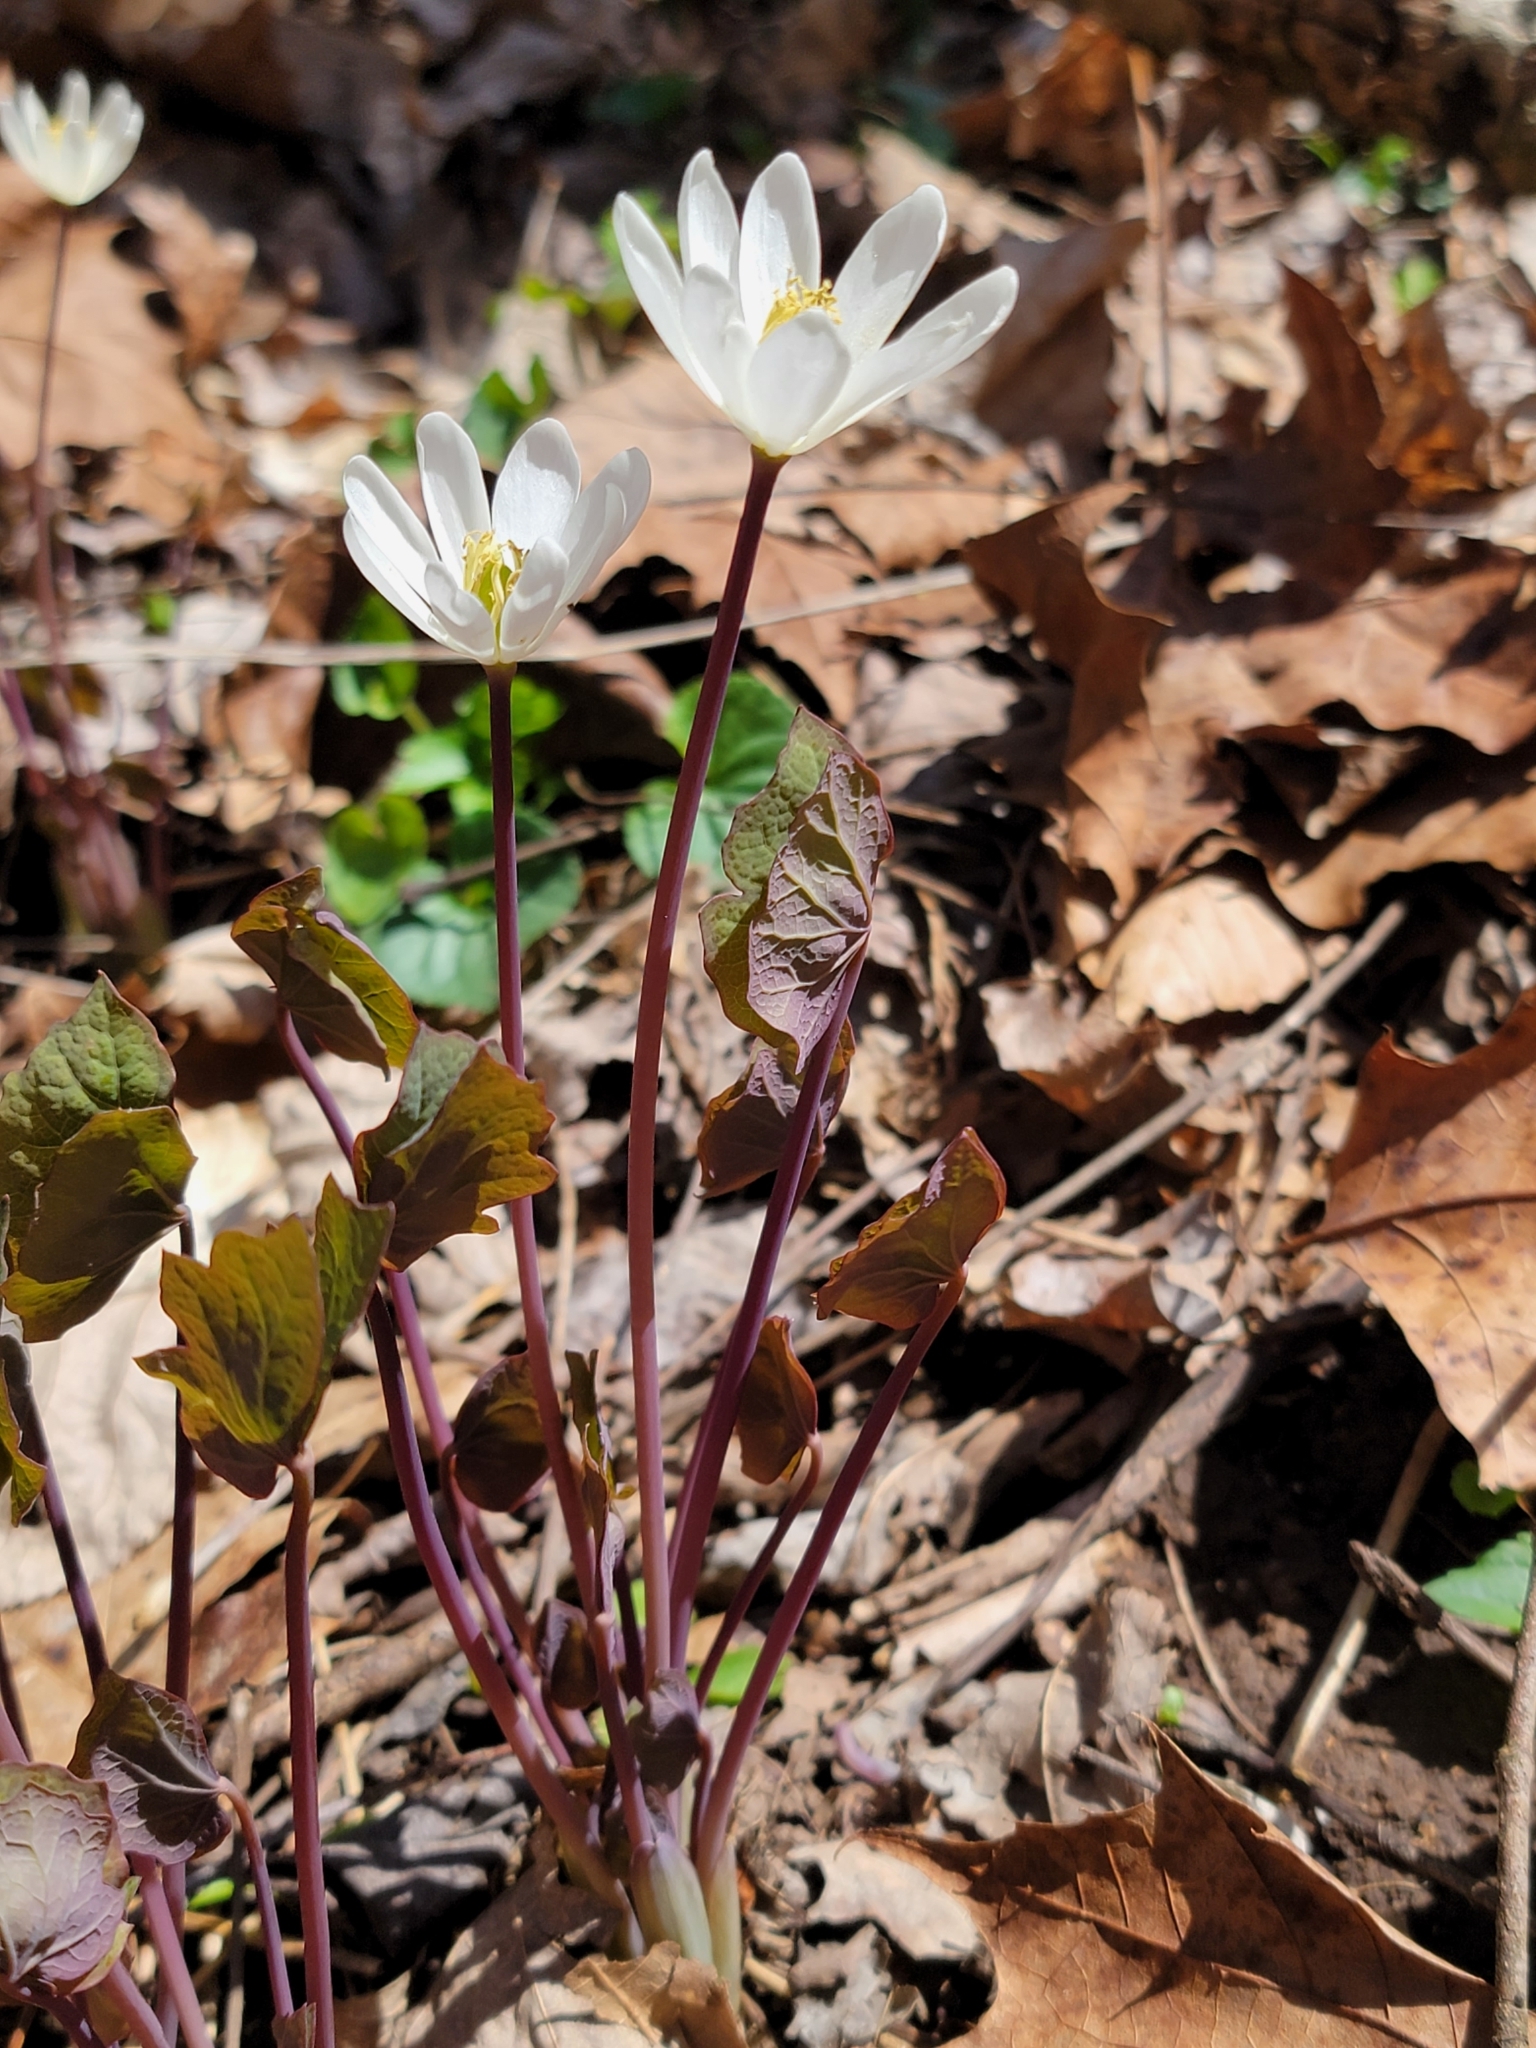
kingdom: Plantae
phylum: Tracheophyta
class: Magnoliopsida
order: Ranunculales
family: Berberidaceae
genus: Jeffersonia
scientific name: Jeffersonia diphylla
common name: Rheumatism-root
